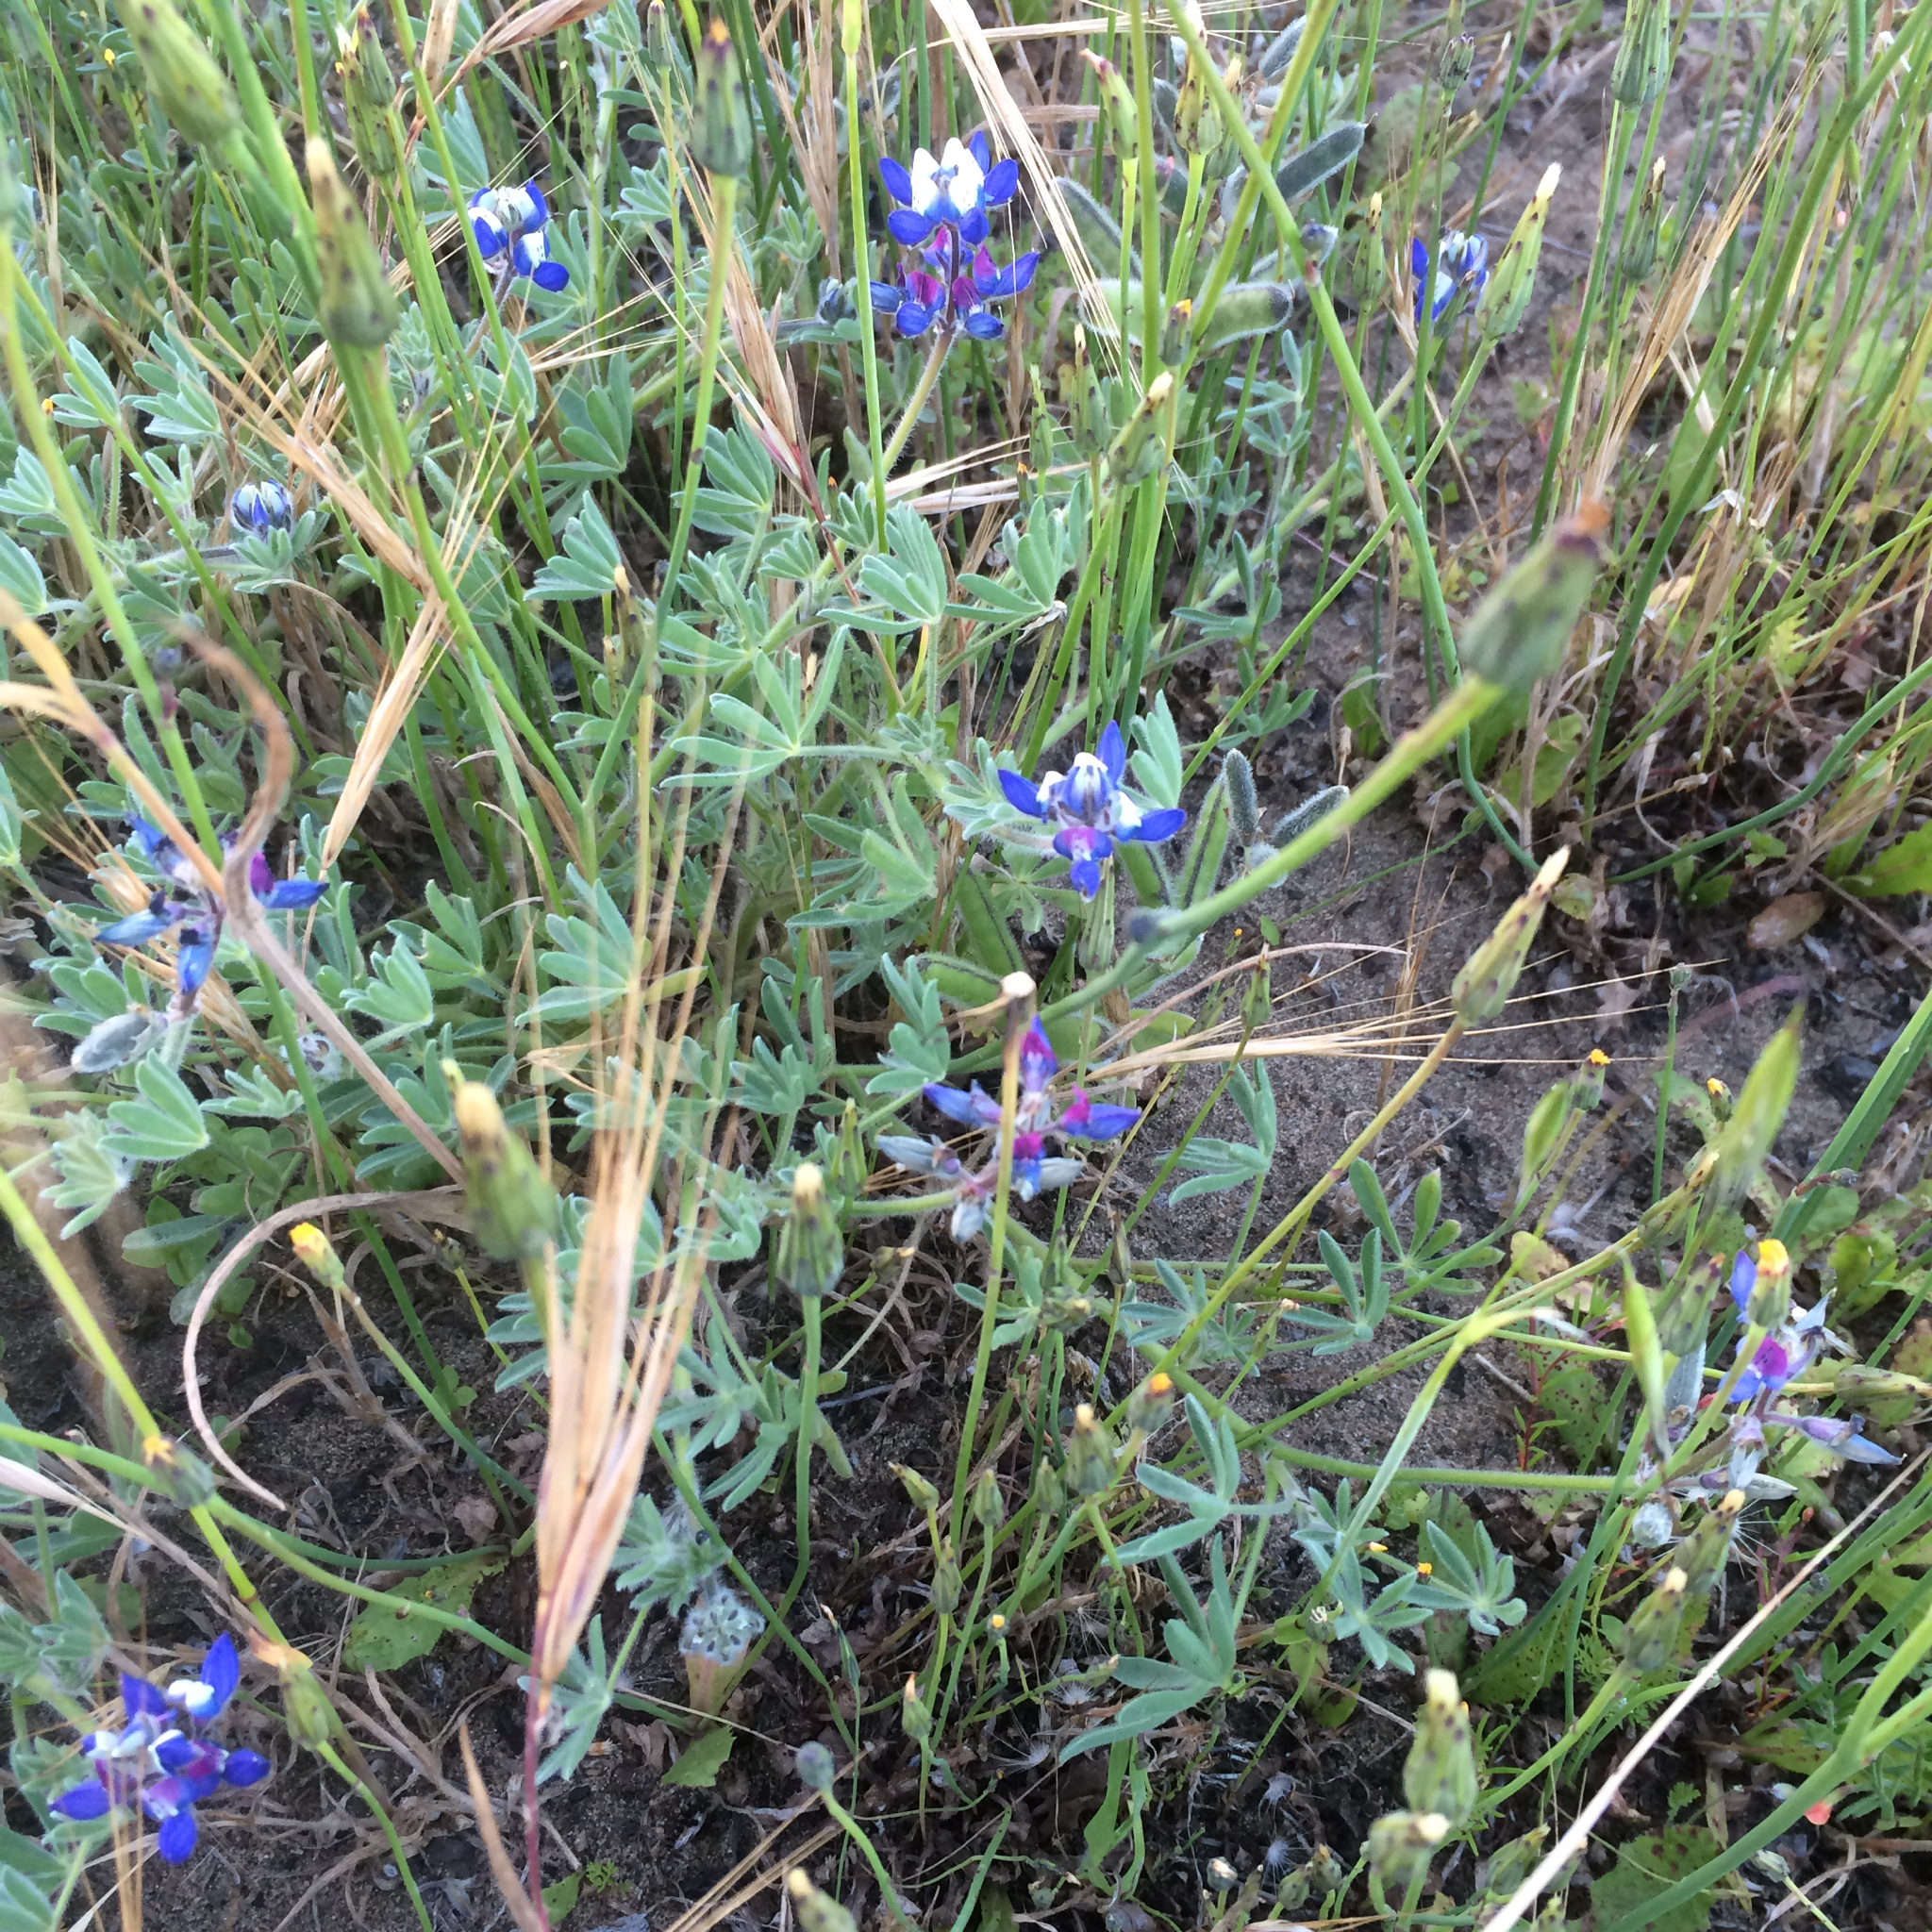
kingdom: Plantae
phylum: Tracheophyta
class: Magnoliopsida
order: Fabales
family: Fabaceae
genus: Lupinus
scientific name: Lupinus bicolor
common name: Miniature lupine
